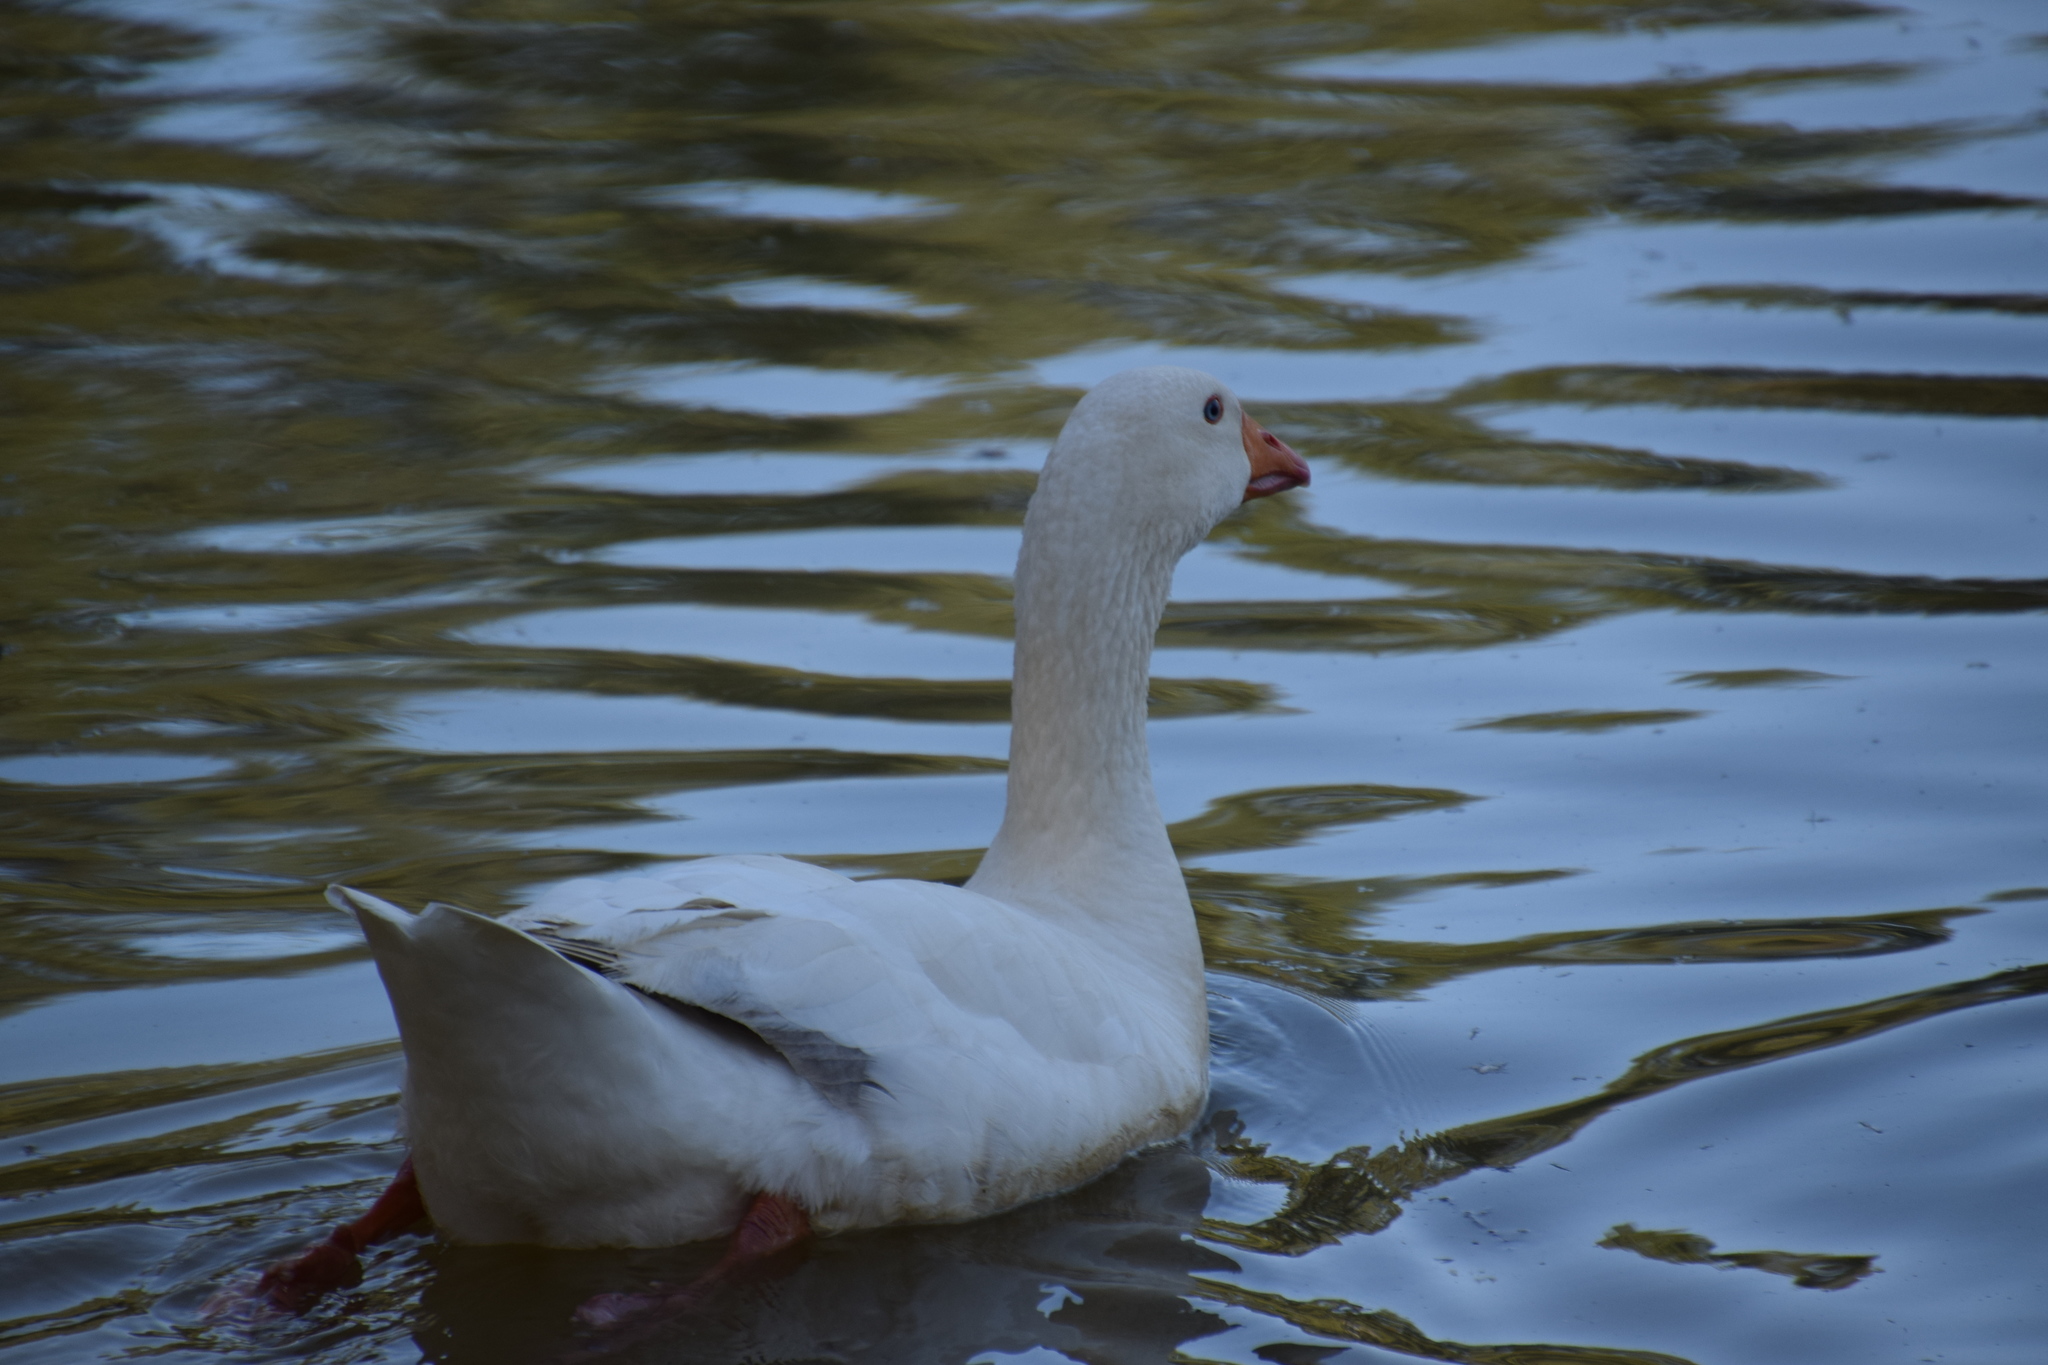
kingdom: Animalia
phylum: Chordata
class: Aves
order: Anseriformes
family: Anatidae
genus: Anser
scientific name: Anser anser
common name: Greylag goose
